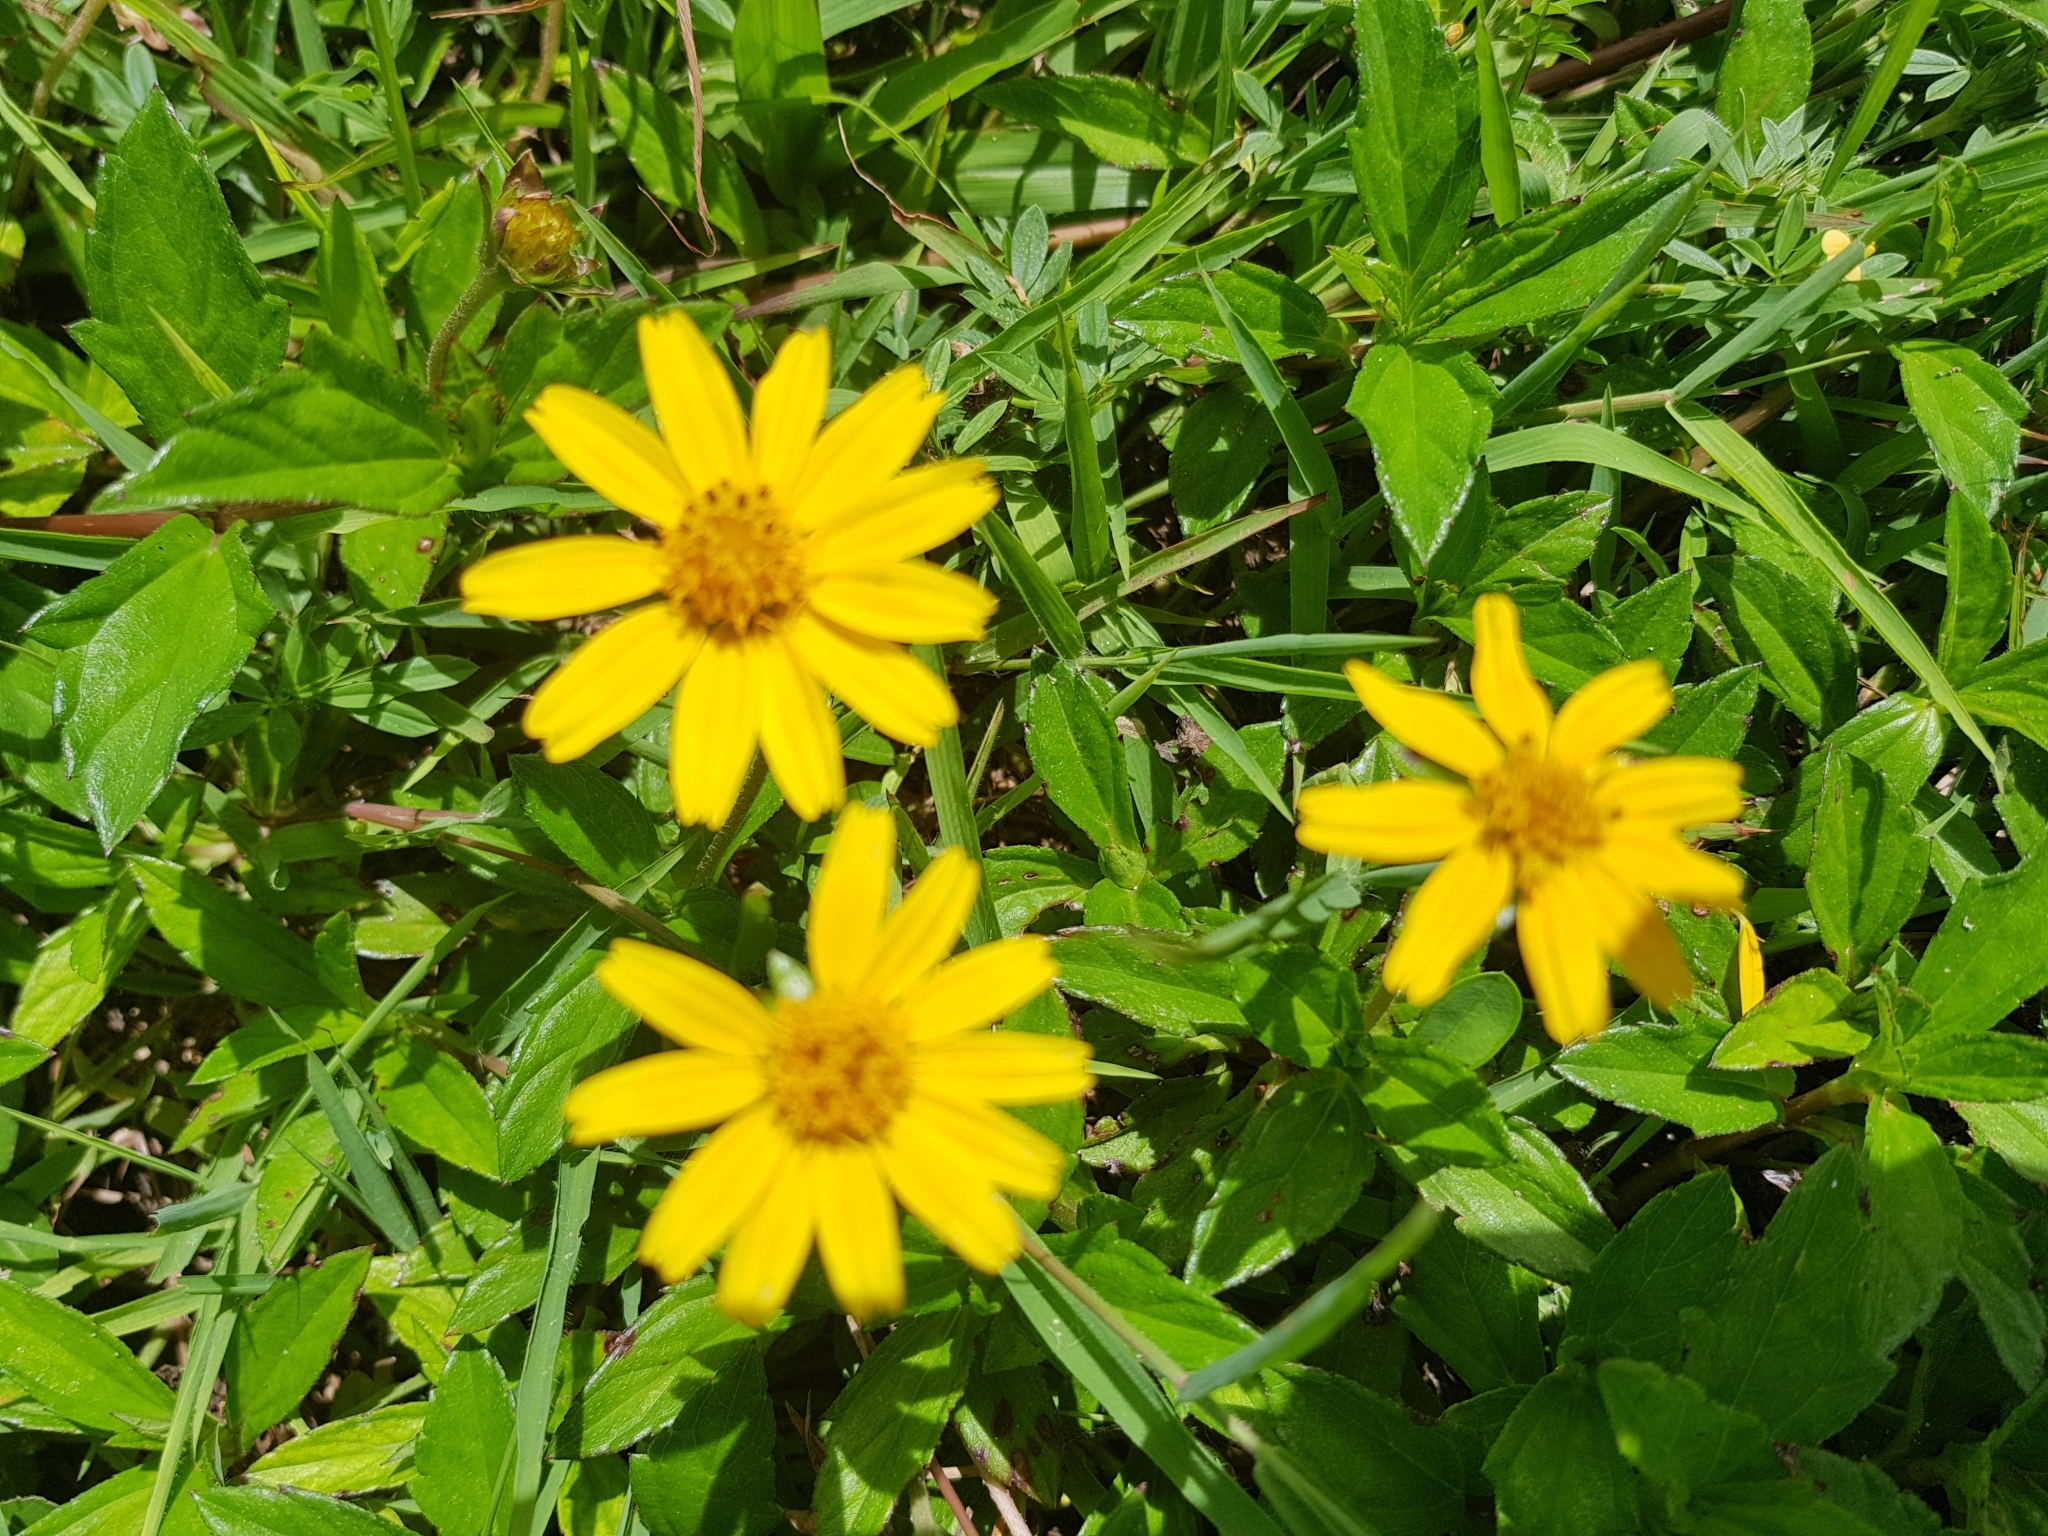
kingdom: Plantae
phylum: Tracheophyta
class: Magnoliopsida
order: Asterales
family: Asteraceae
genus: Sphagneticola
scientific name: Sphagneticola trilobata
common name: Bay biscayne creeping-oxeye
